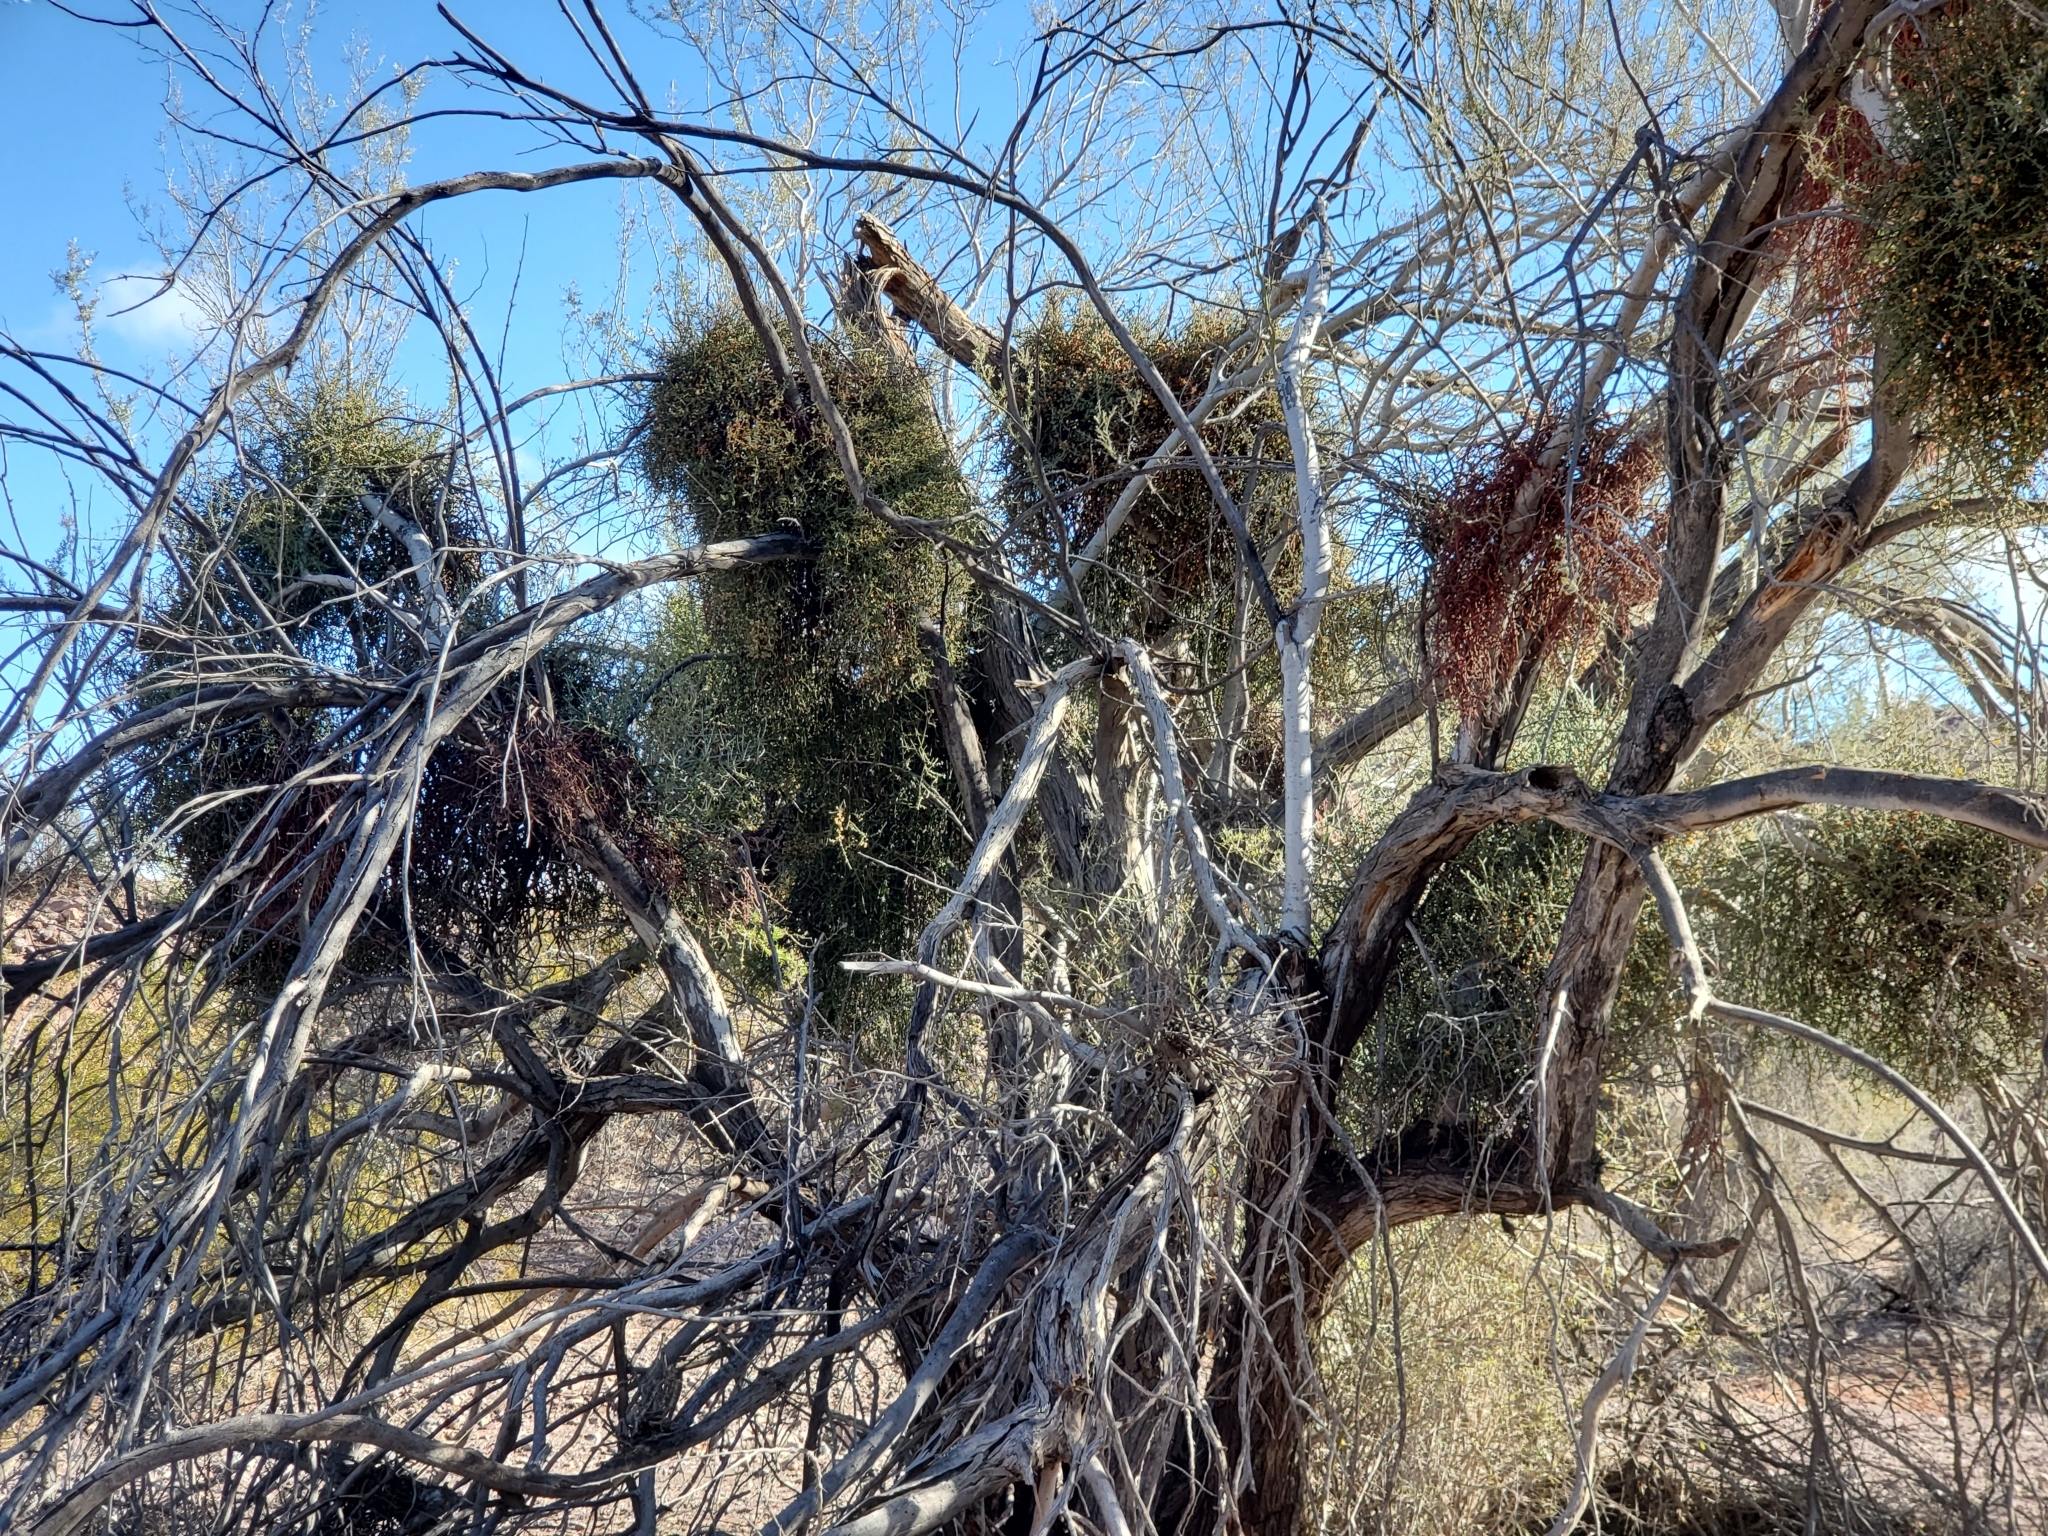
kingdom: Plantae
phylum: Tracheophyta
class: Magnoliopsida
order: Santalales
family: Viscaceae
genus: Phoradendron
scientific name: Phoradendron californicum
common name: Acacia mistletoe
